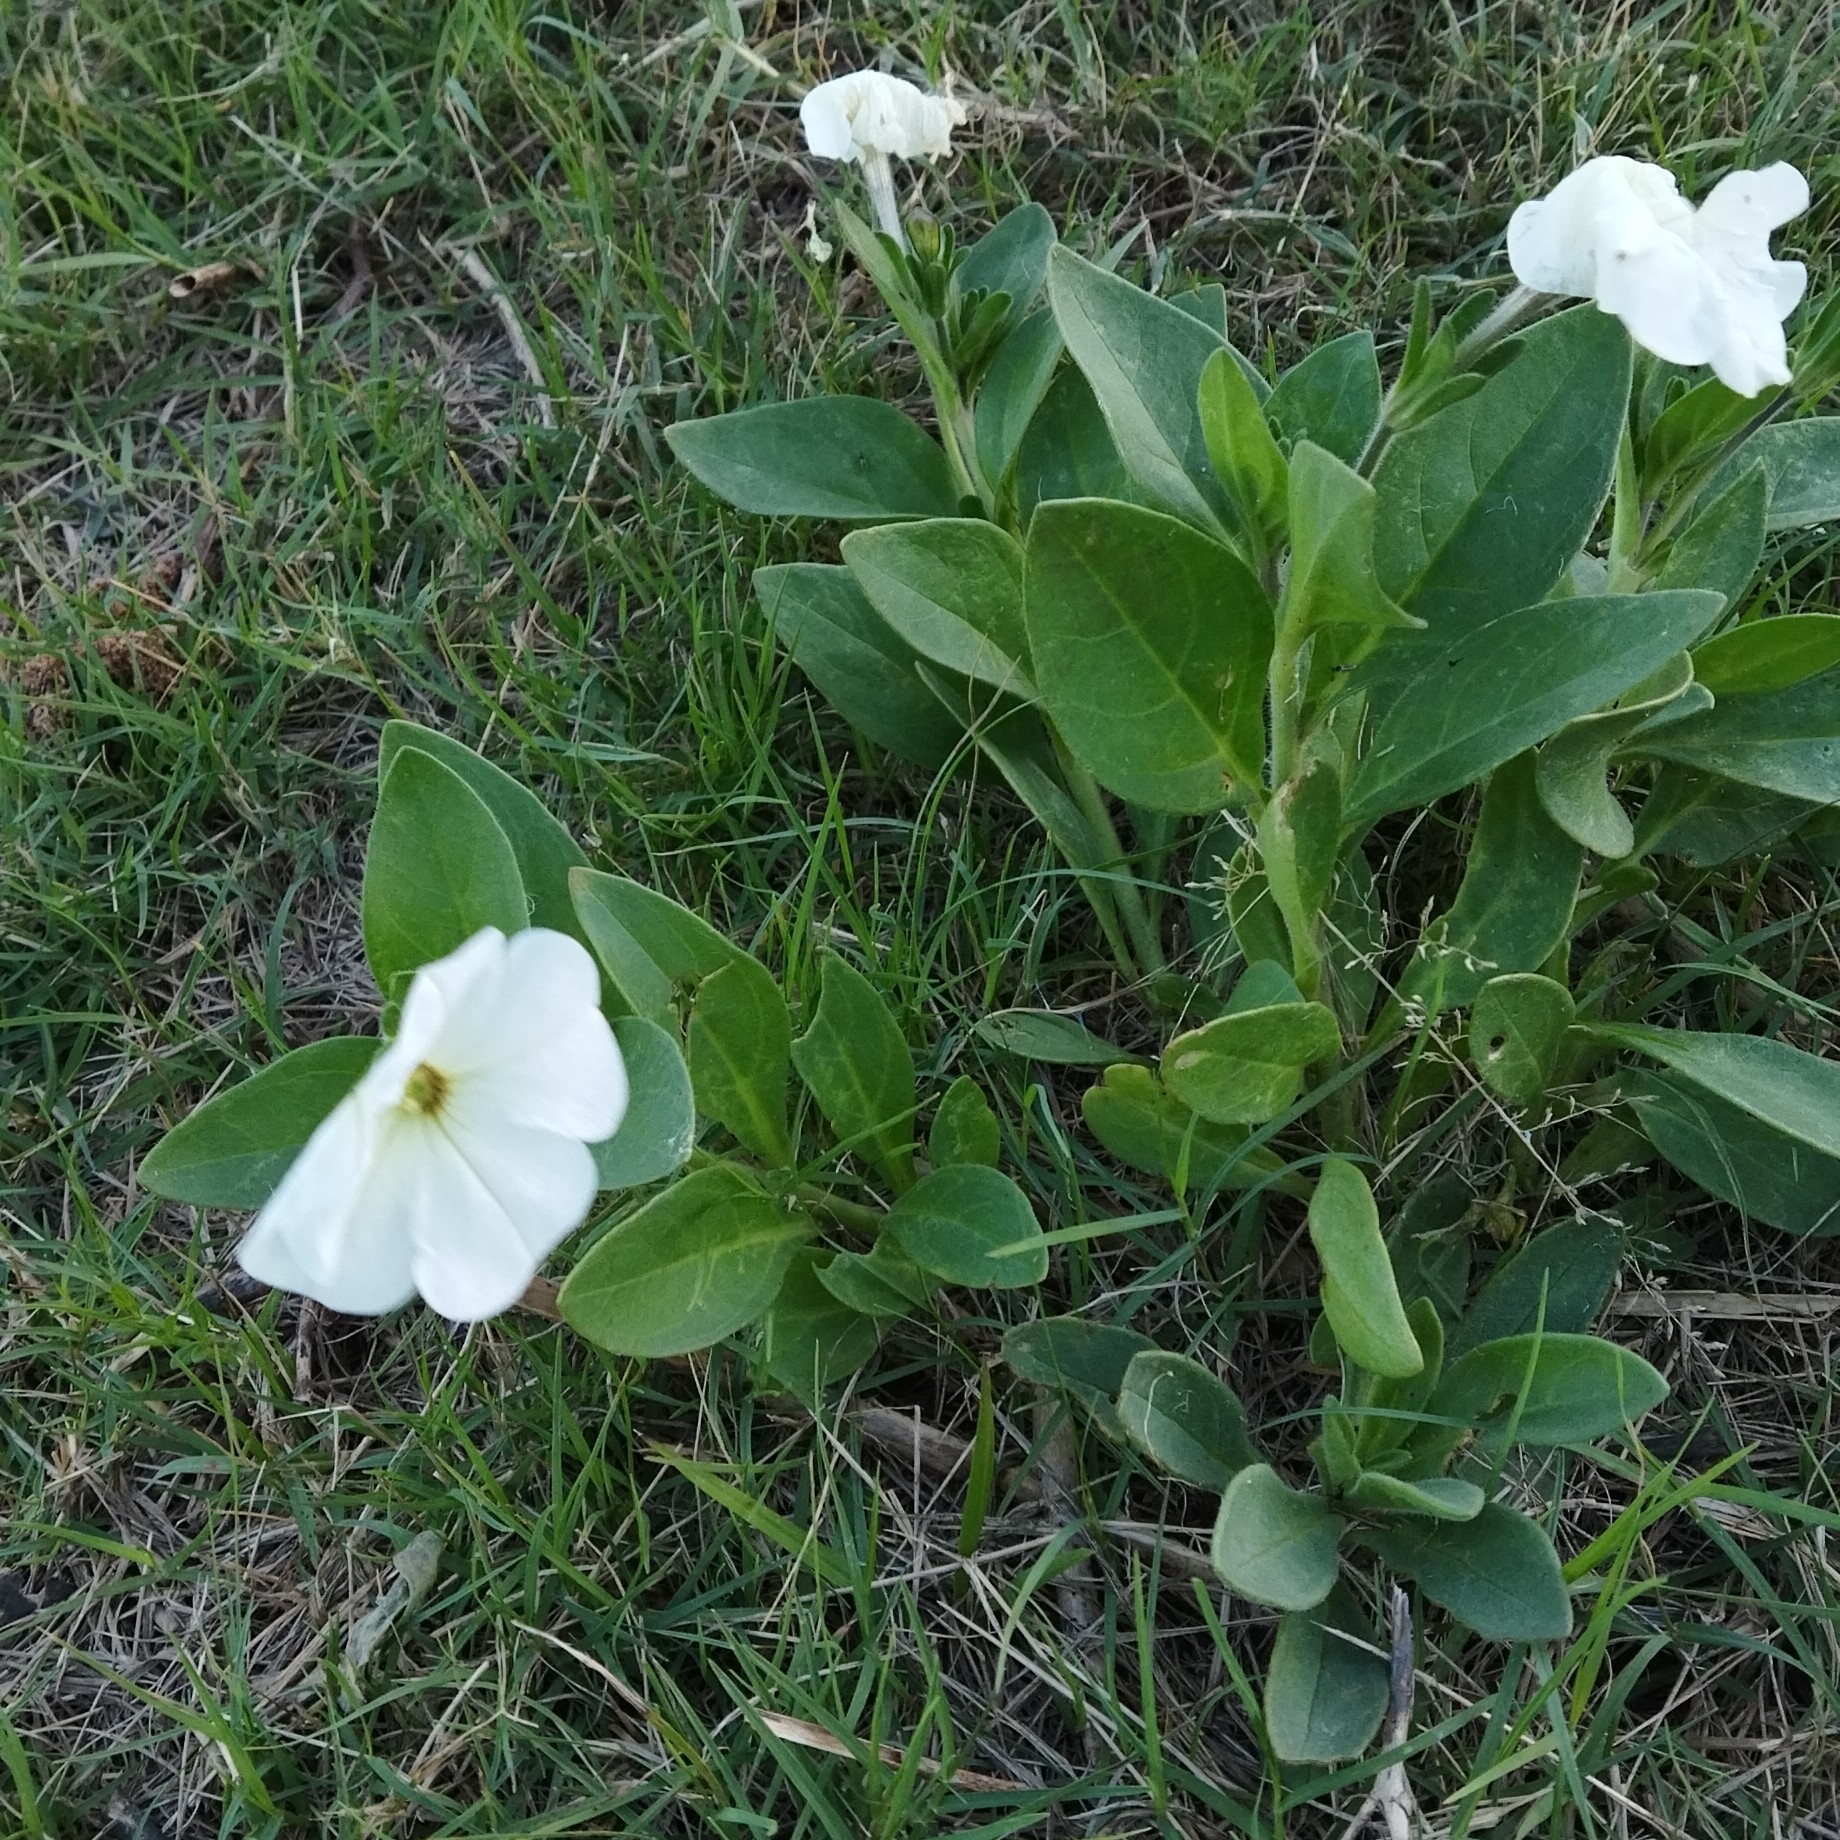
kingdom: Plantae
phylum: Tracheophyta
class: Magnoliopsida
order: Solanales
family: Solanaceae
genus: Petunia
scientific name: Petunia axillaris
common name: Large white petunia
